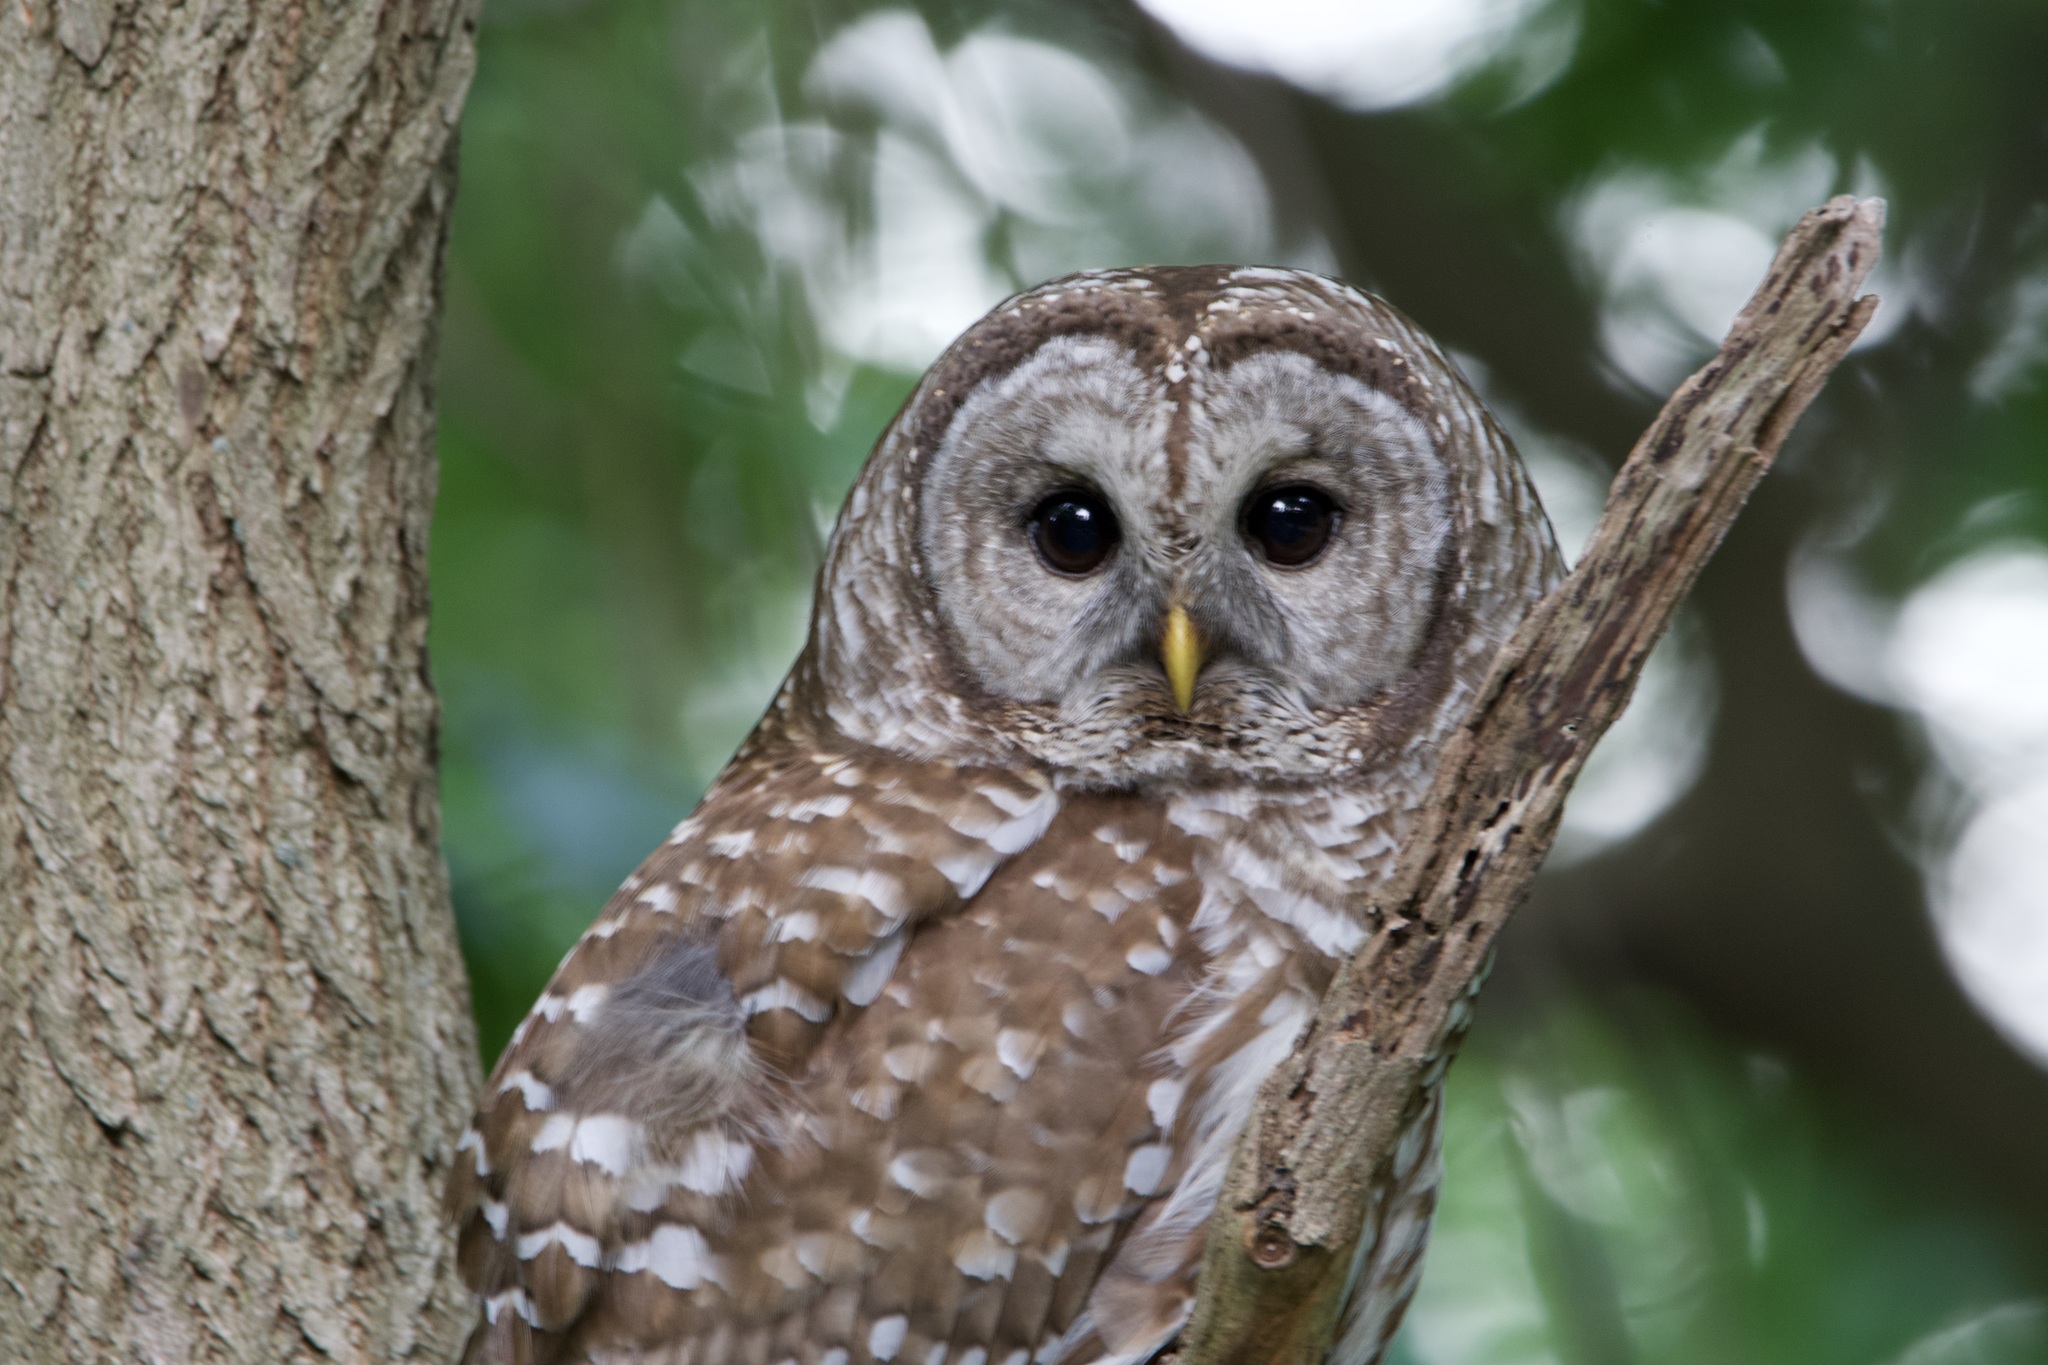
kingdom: Animalia
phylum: Chordata
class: Aves
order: Strigiformes
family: Strigidae
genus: Strix
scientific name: Strix varia
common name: Barred owl
